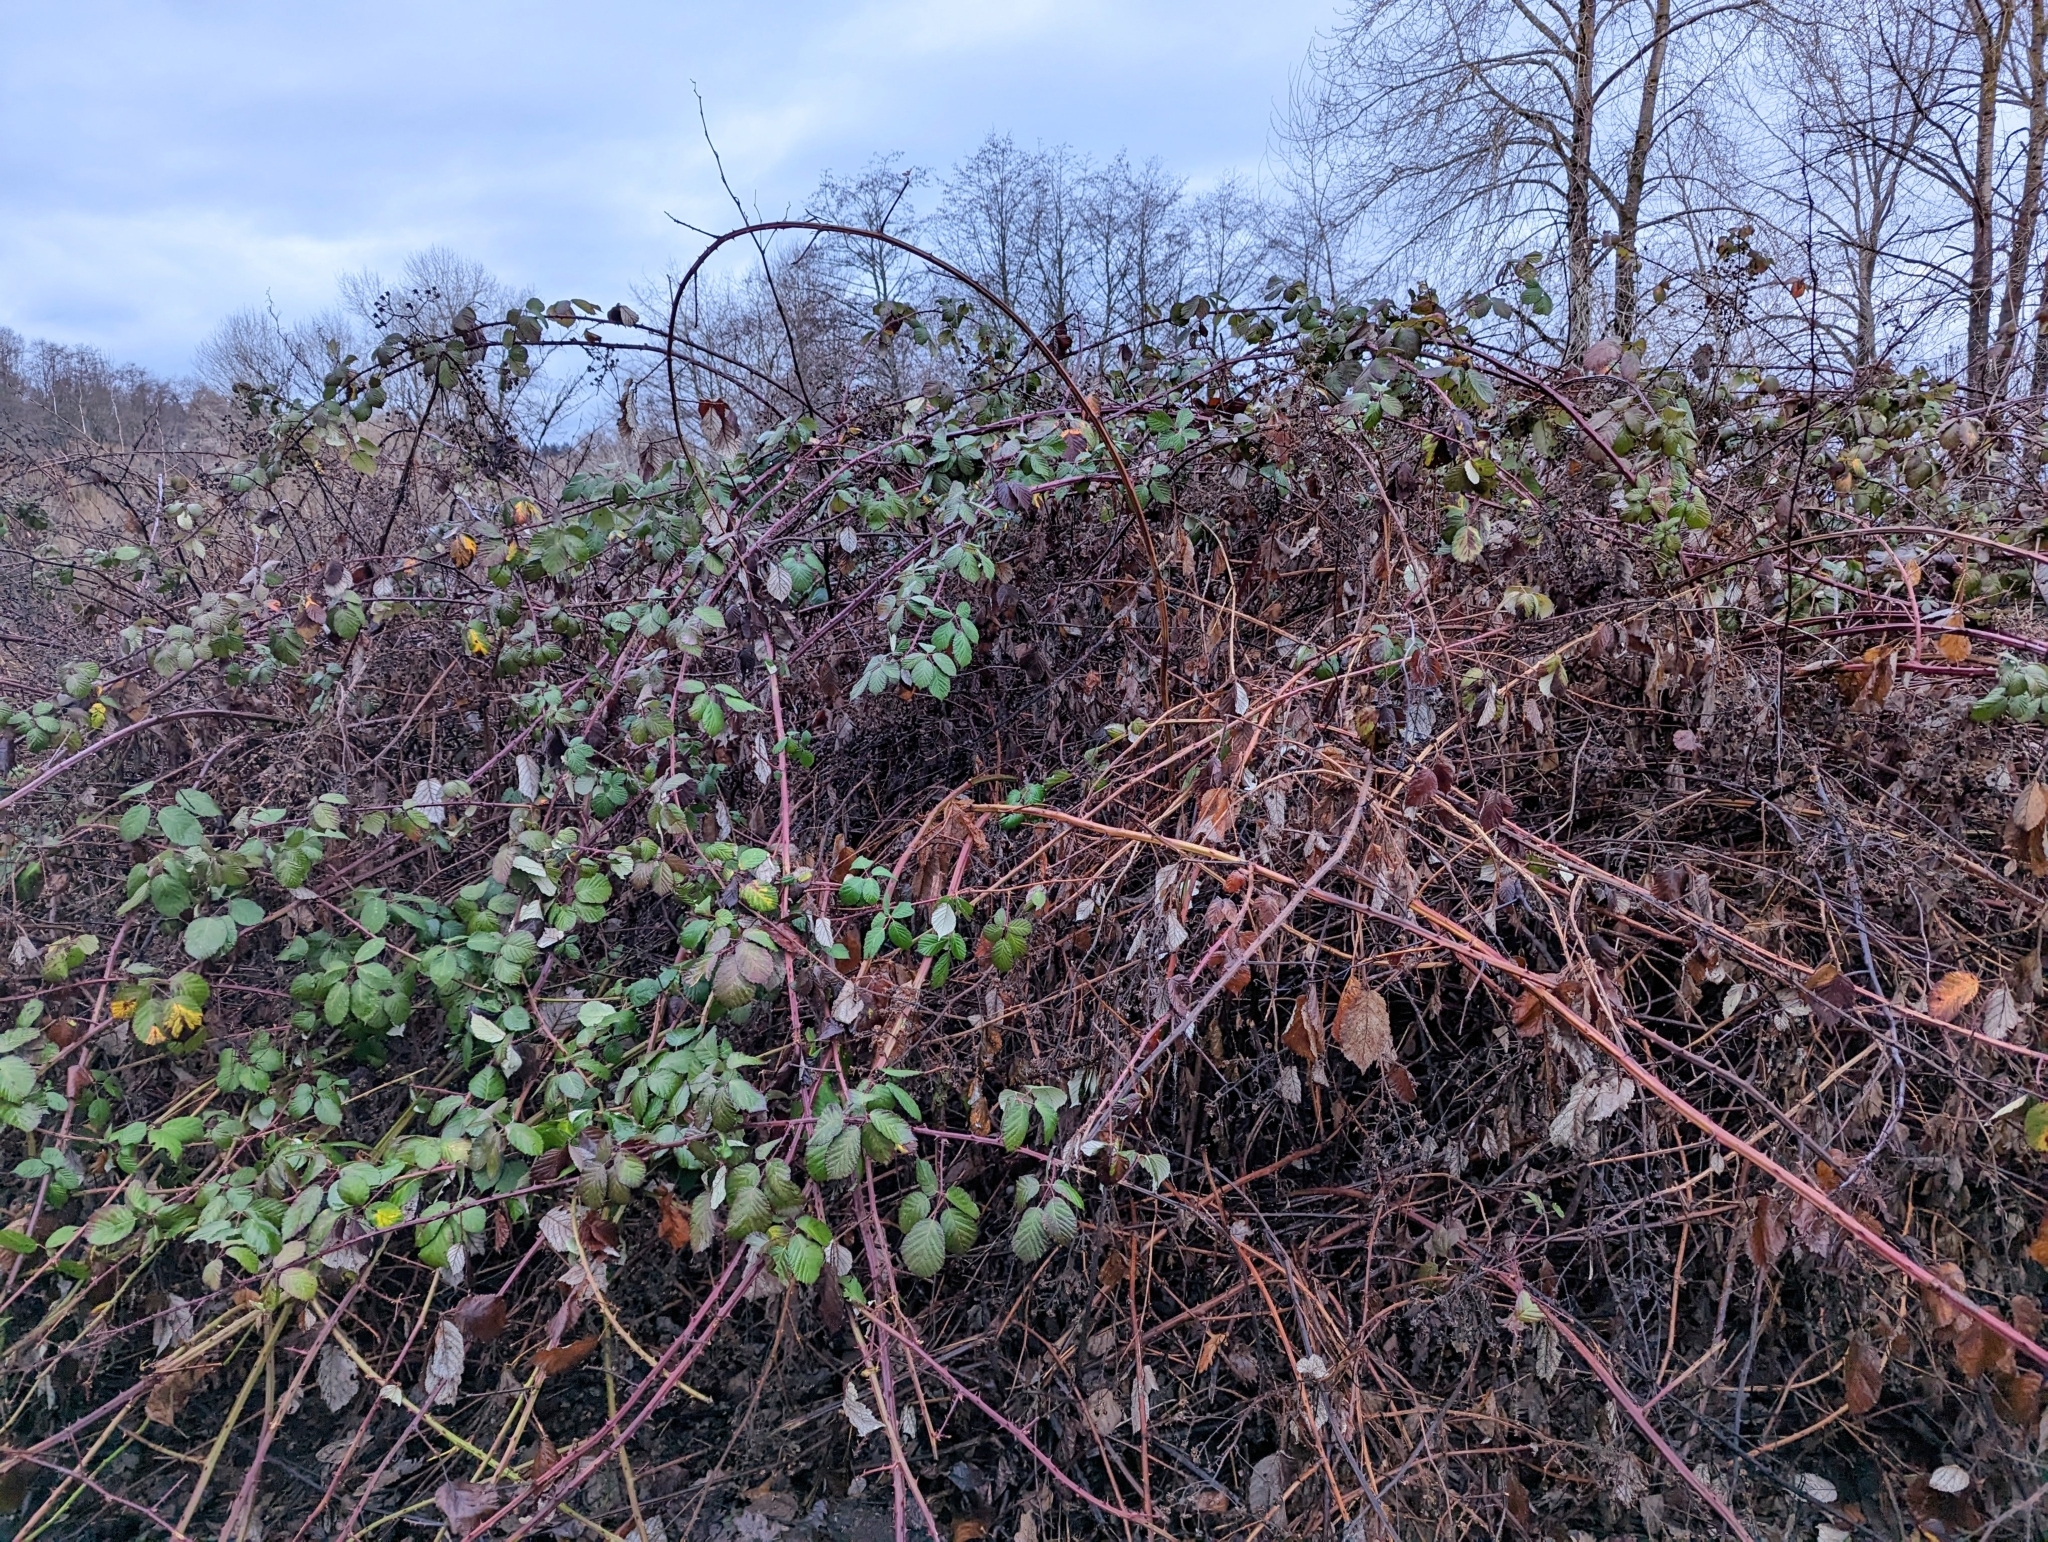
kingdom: Plantae
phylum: Tracheophyta
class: Magnoliopsida
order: Rosales
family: Rosaceae
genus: Rubus
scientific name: Rubus bifrons
